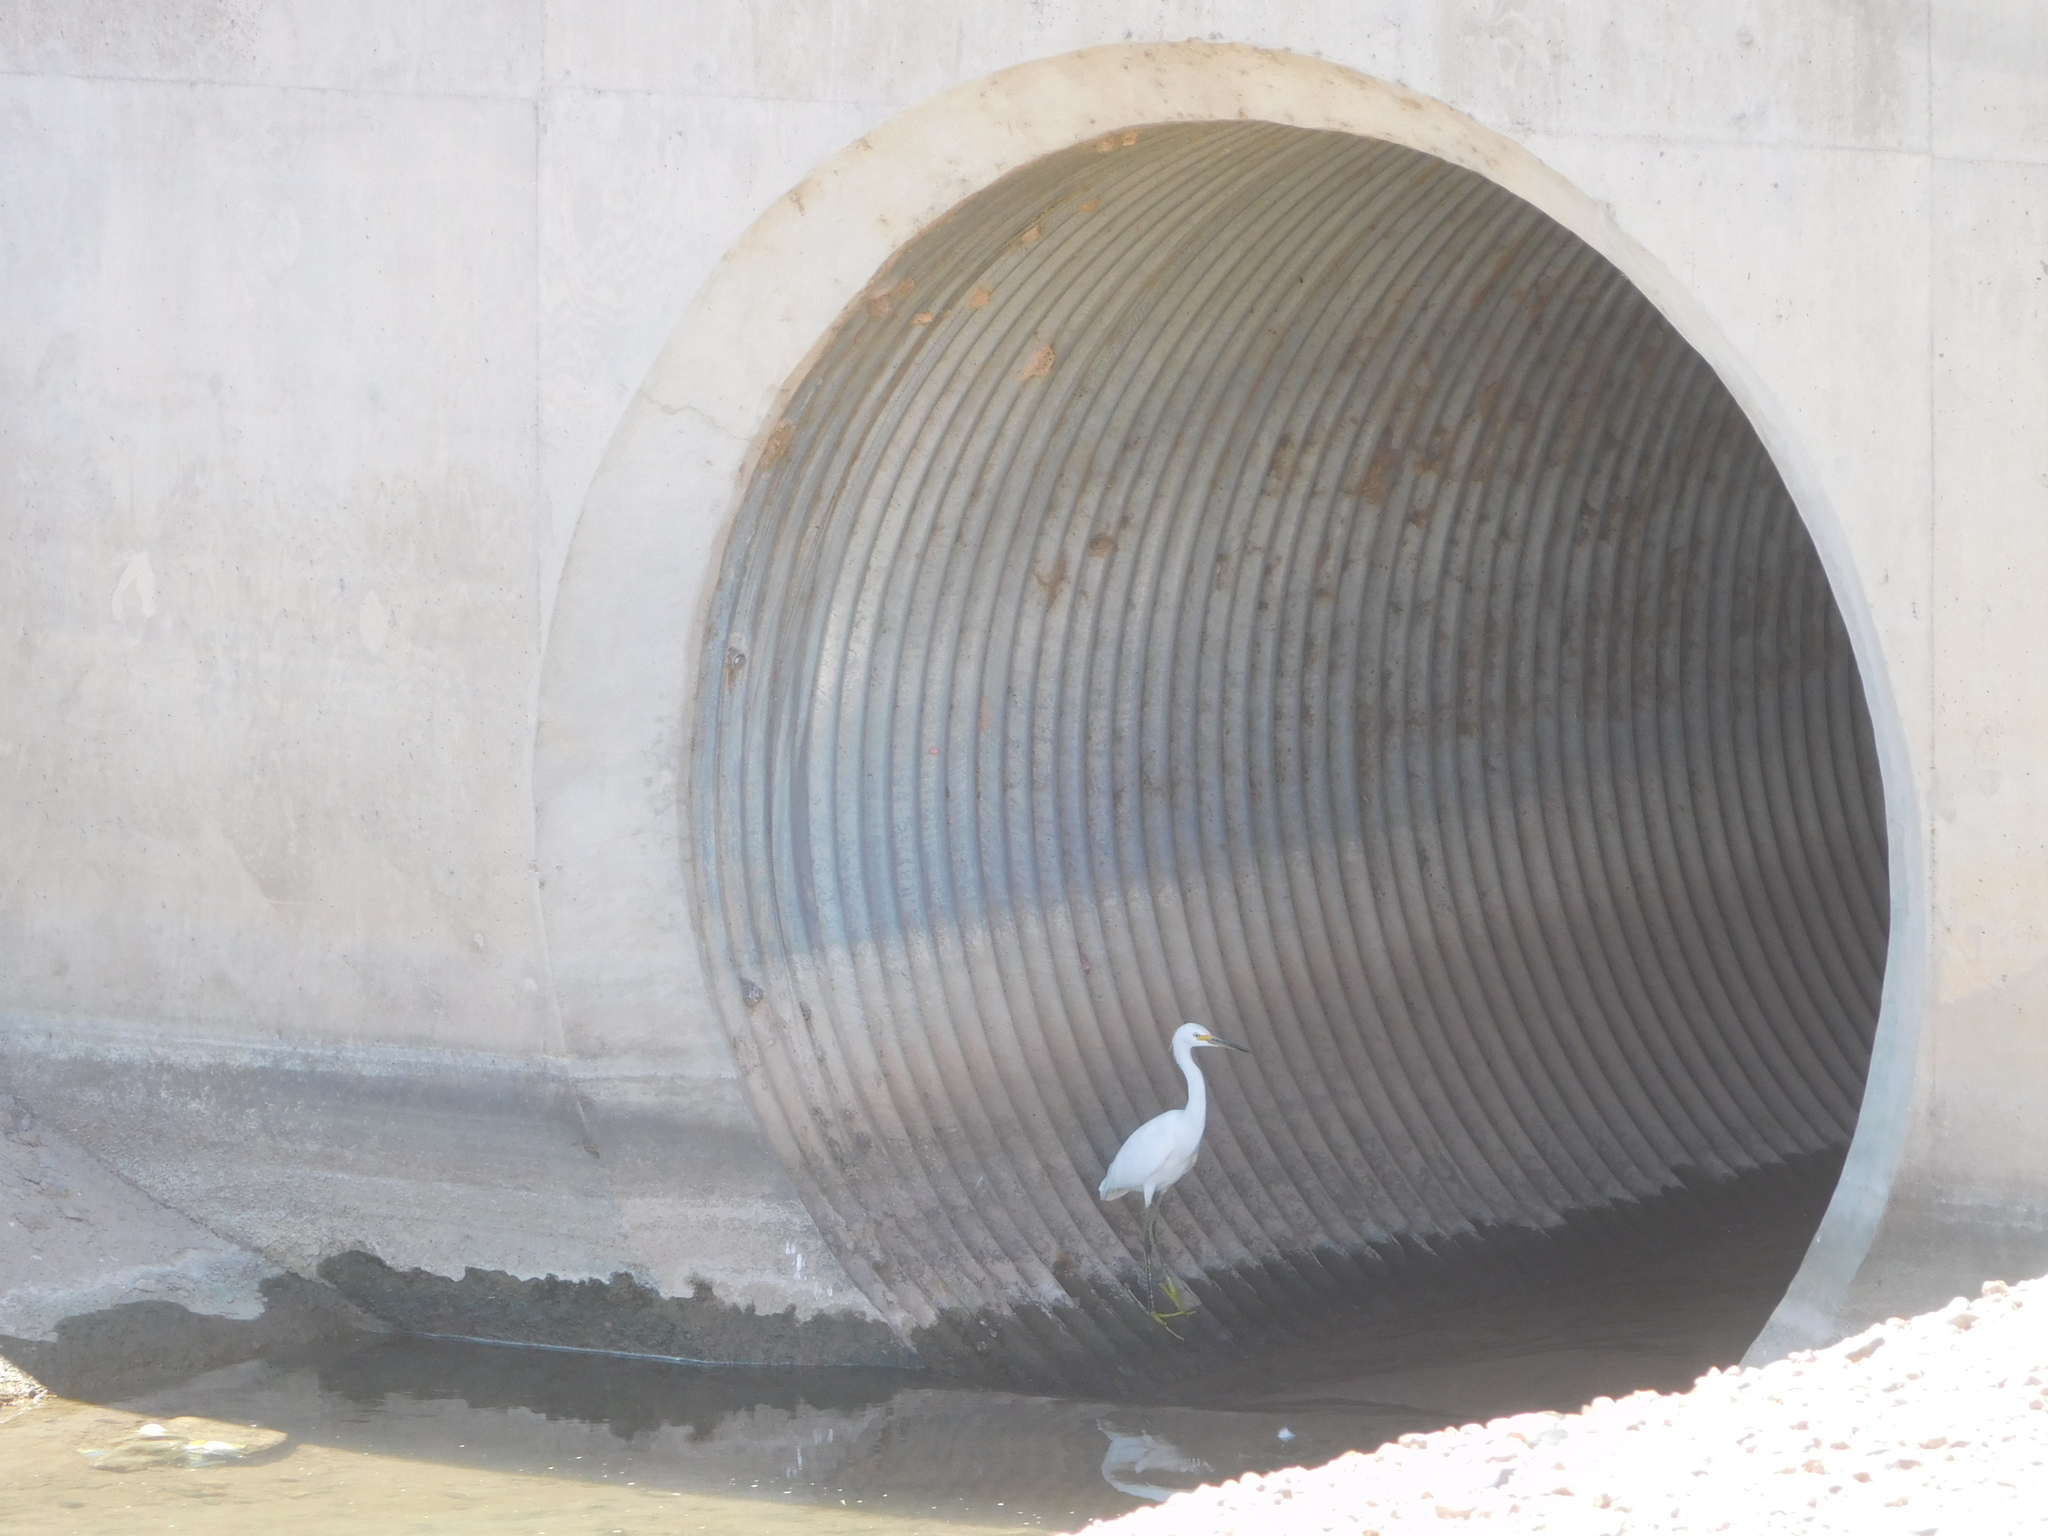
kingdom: Animalia
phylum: Chordata
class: Aves
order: Pelecaniformes
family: Ardeidae
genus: Egretta
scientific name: Egretta thula
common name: Snowy egret
